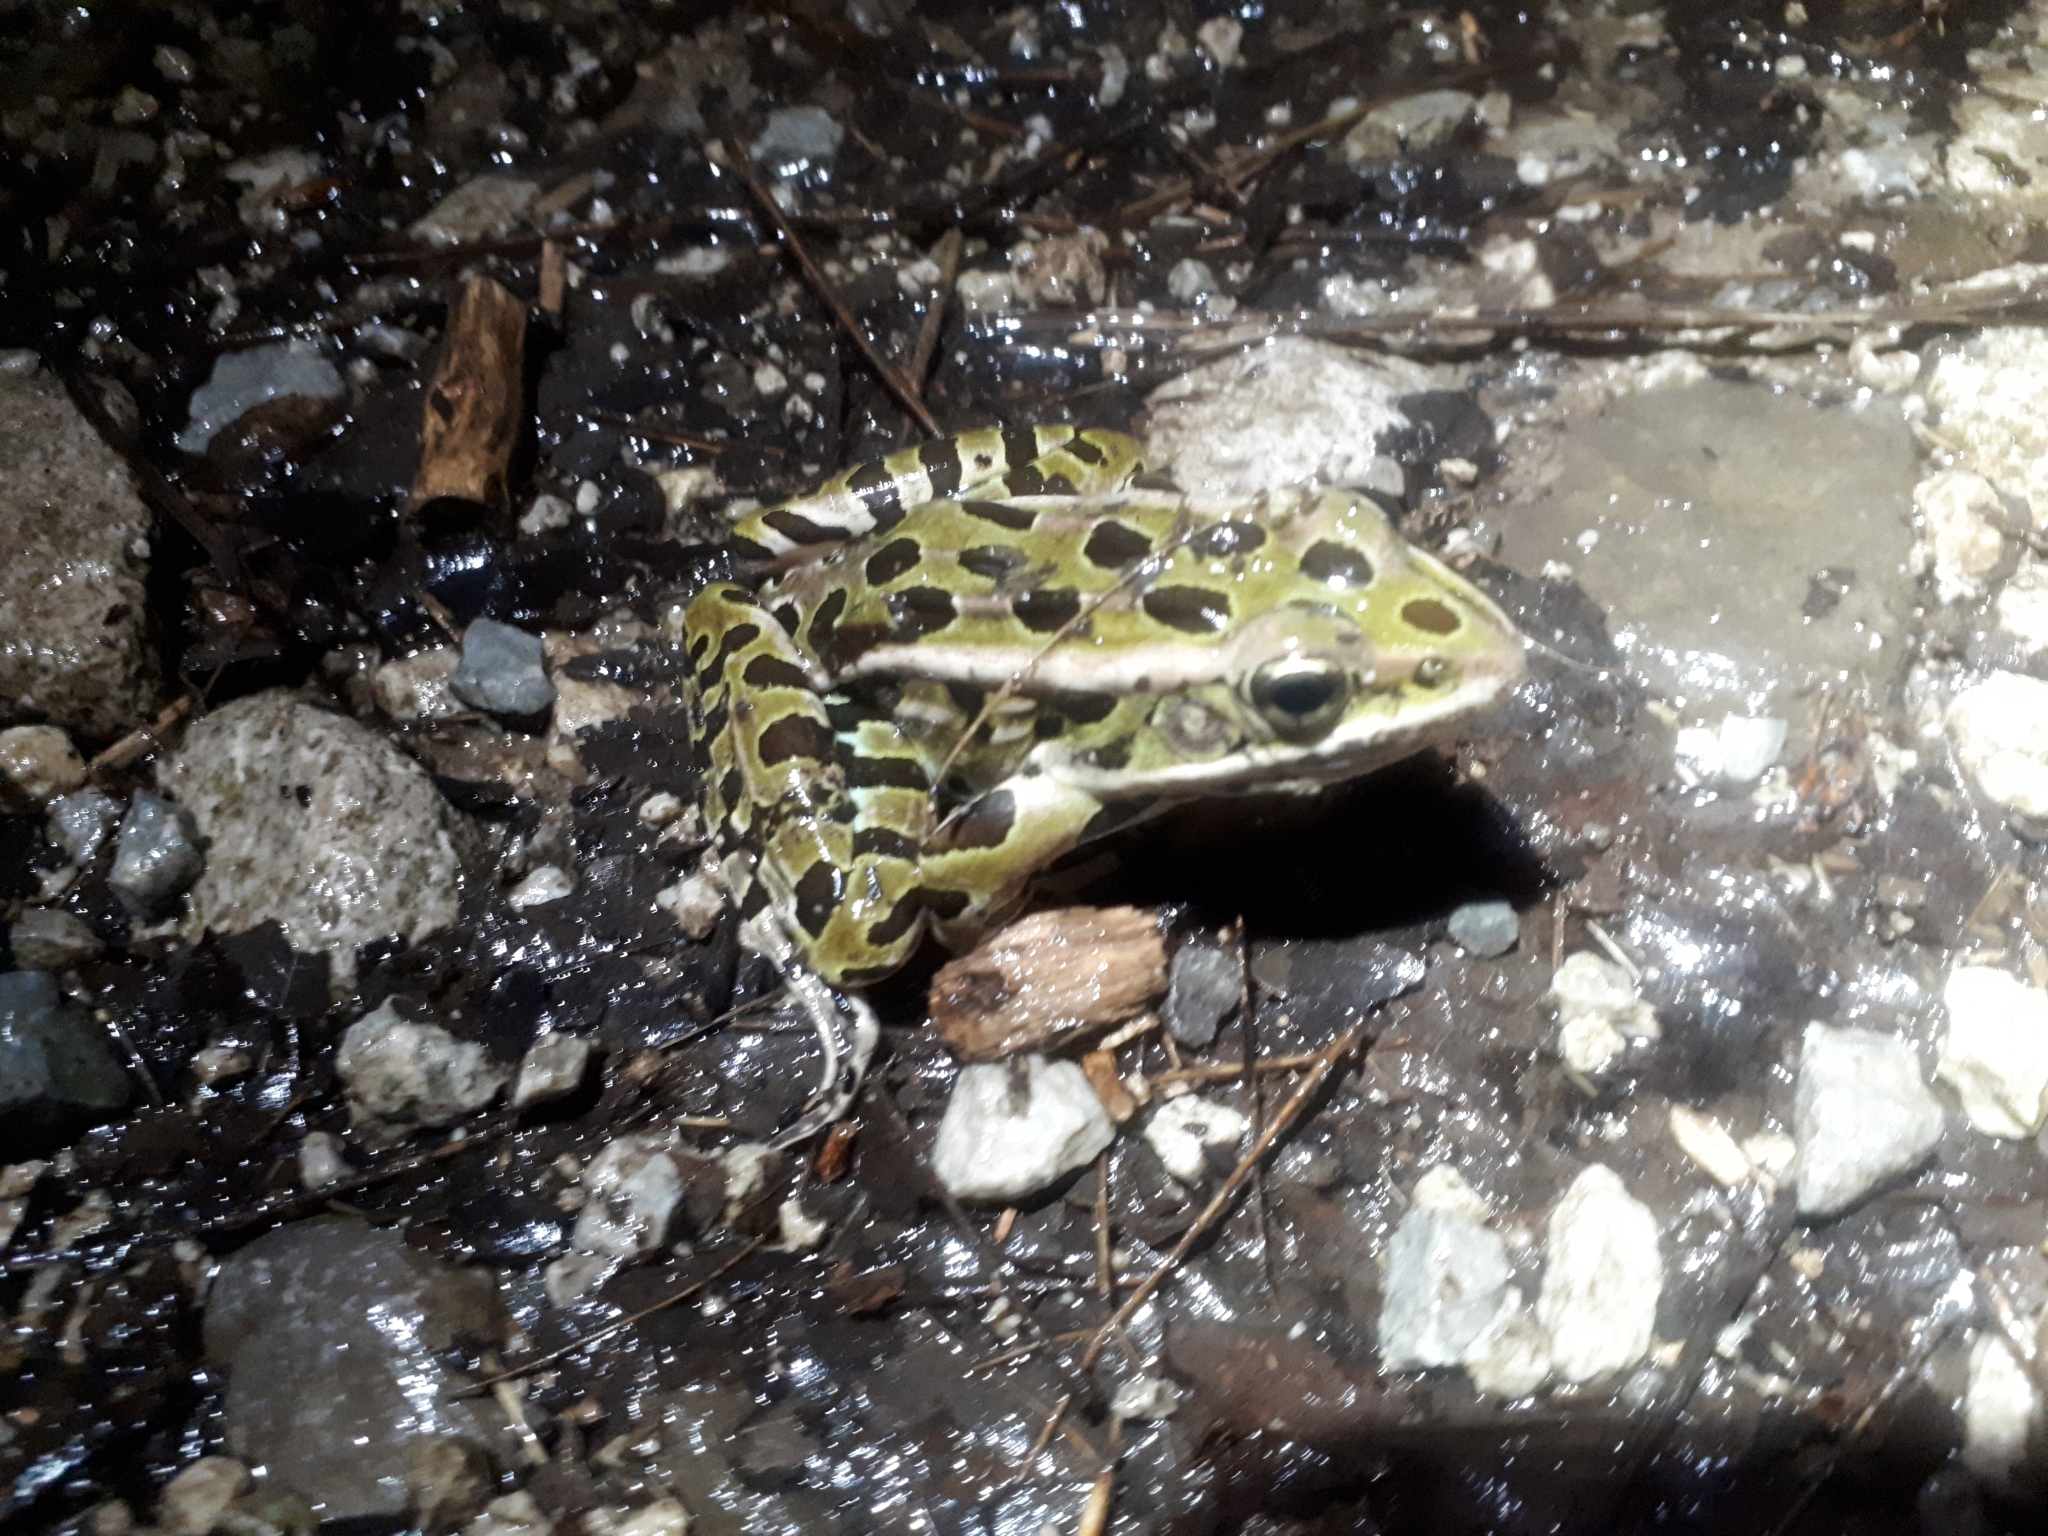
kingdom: Animalia
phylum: Chordata
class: Amphibia
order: Anura
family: Ranidae
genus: Lithobates
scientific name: Lithobates pipiens
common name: Northern leopard frog
